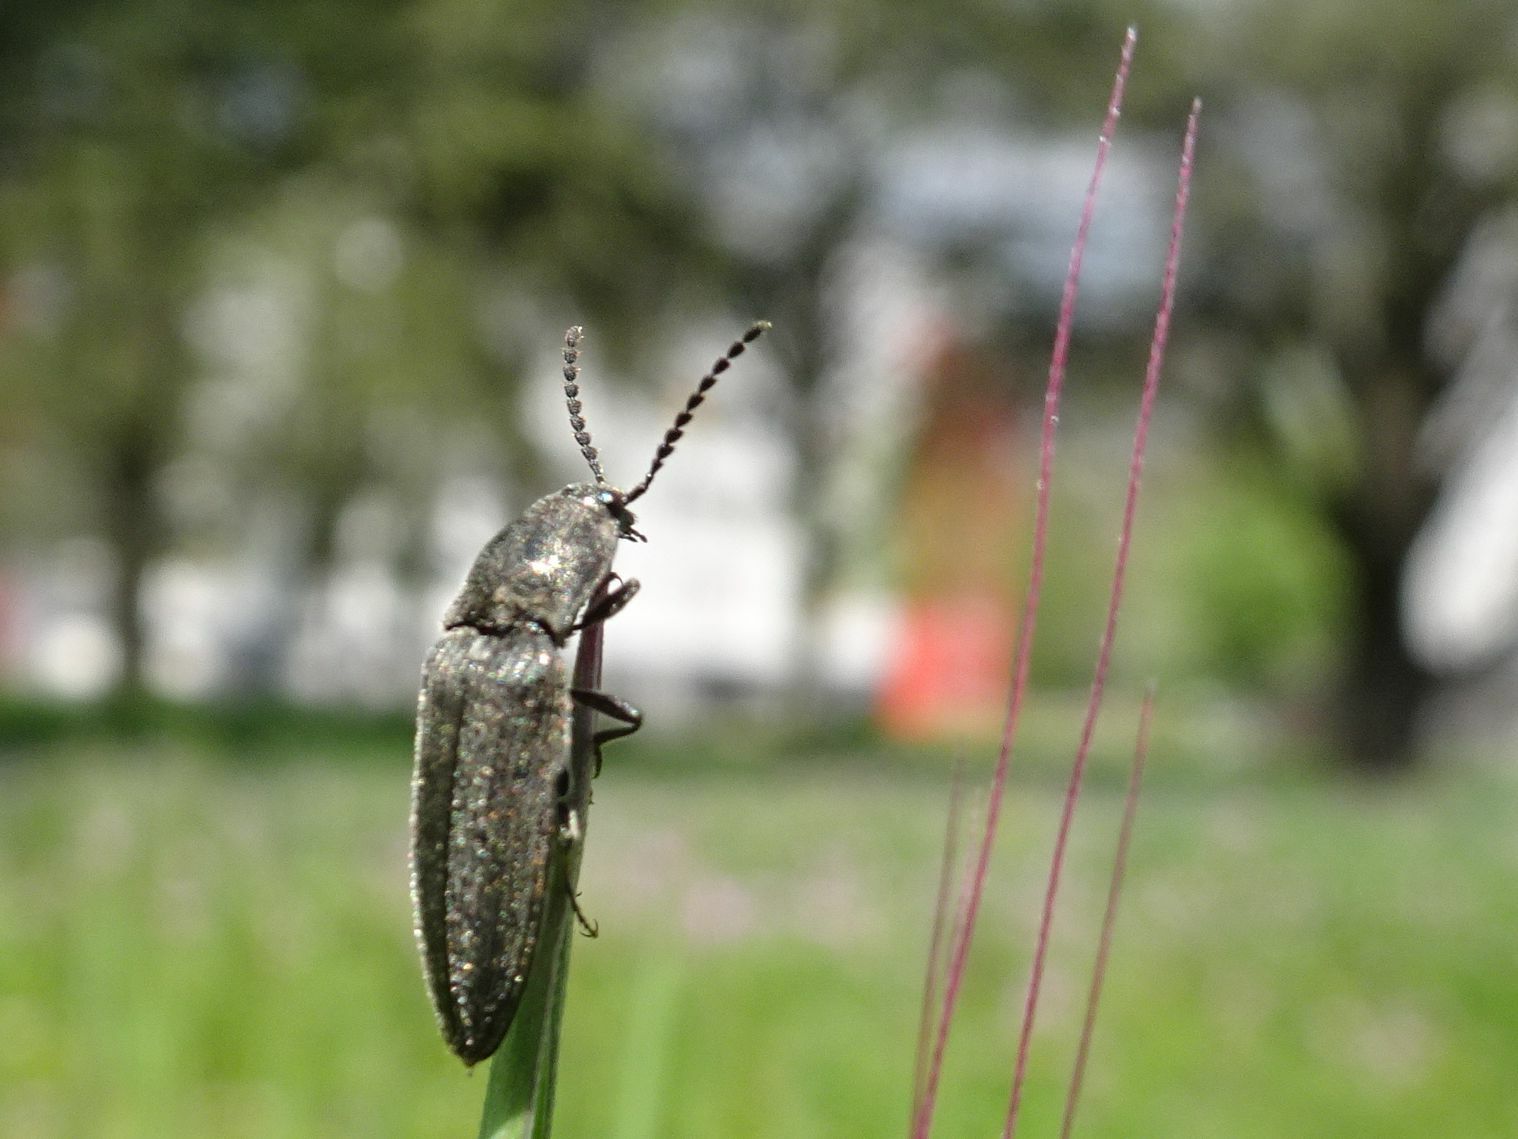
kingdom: Animalia
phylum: Arthropoda
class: Insecta
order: Coleoptera
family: Elateridae
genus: Cidnopus
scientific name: Cidnopus pilosus
